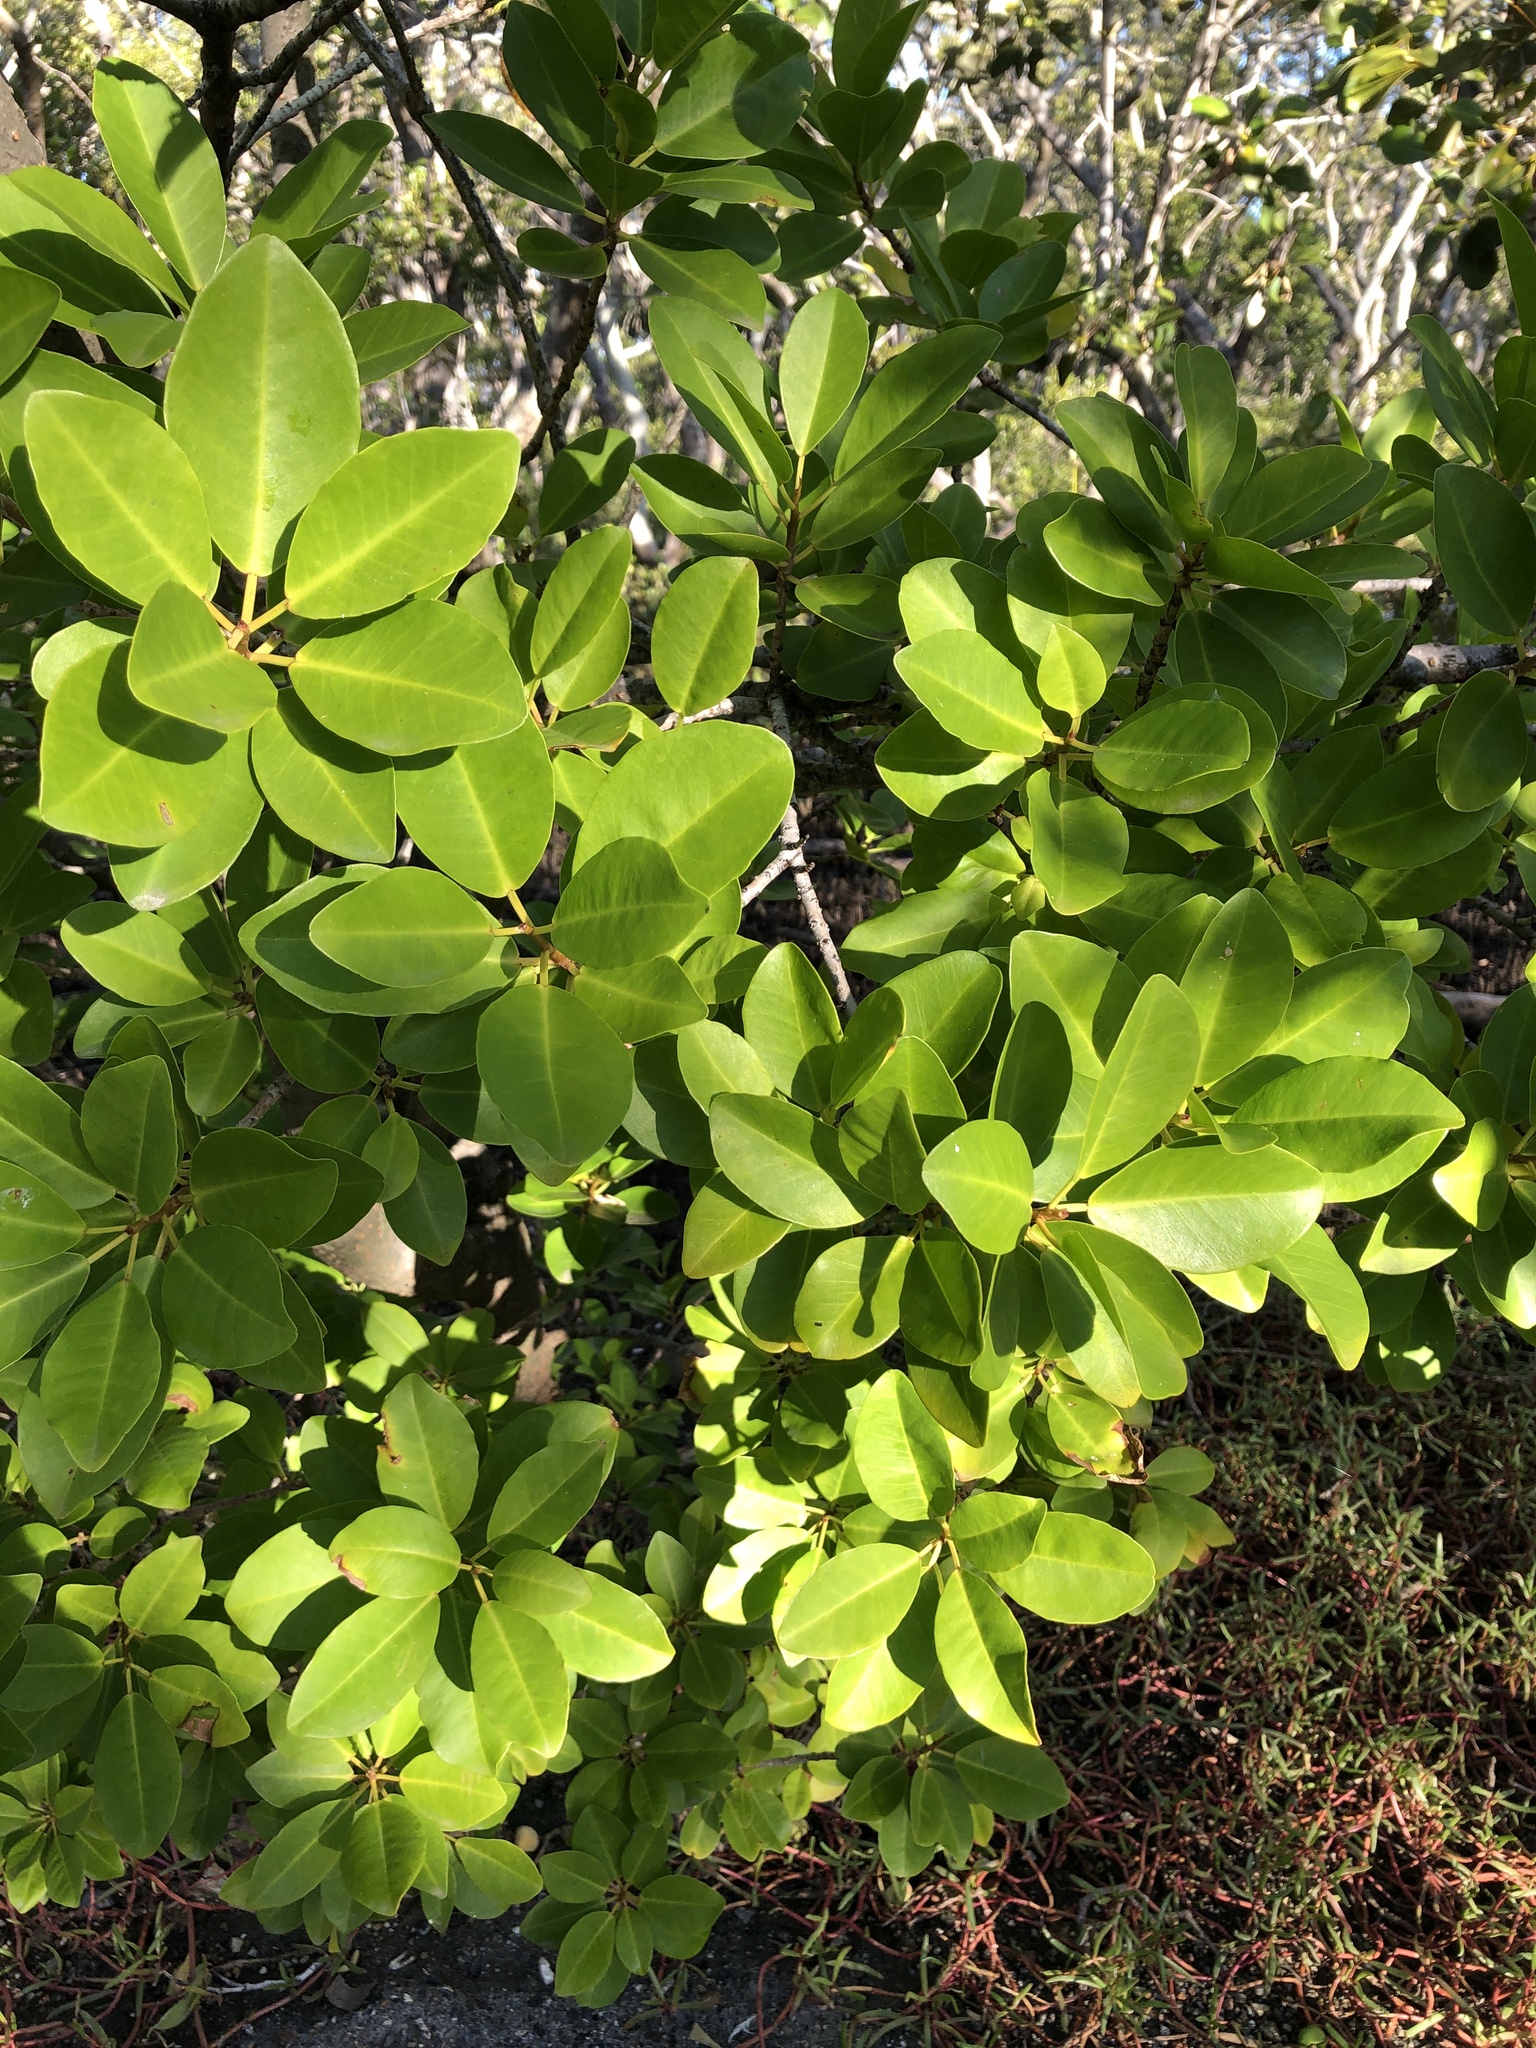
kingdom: Plantae
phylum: Tracheophyta
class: Magnoliopsida
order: Malpighiales
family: Euphorbiaceae
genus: Excoecaria
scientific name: Excoecaria agallocha
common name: River poisontree
